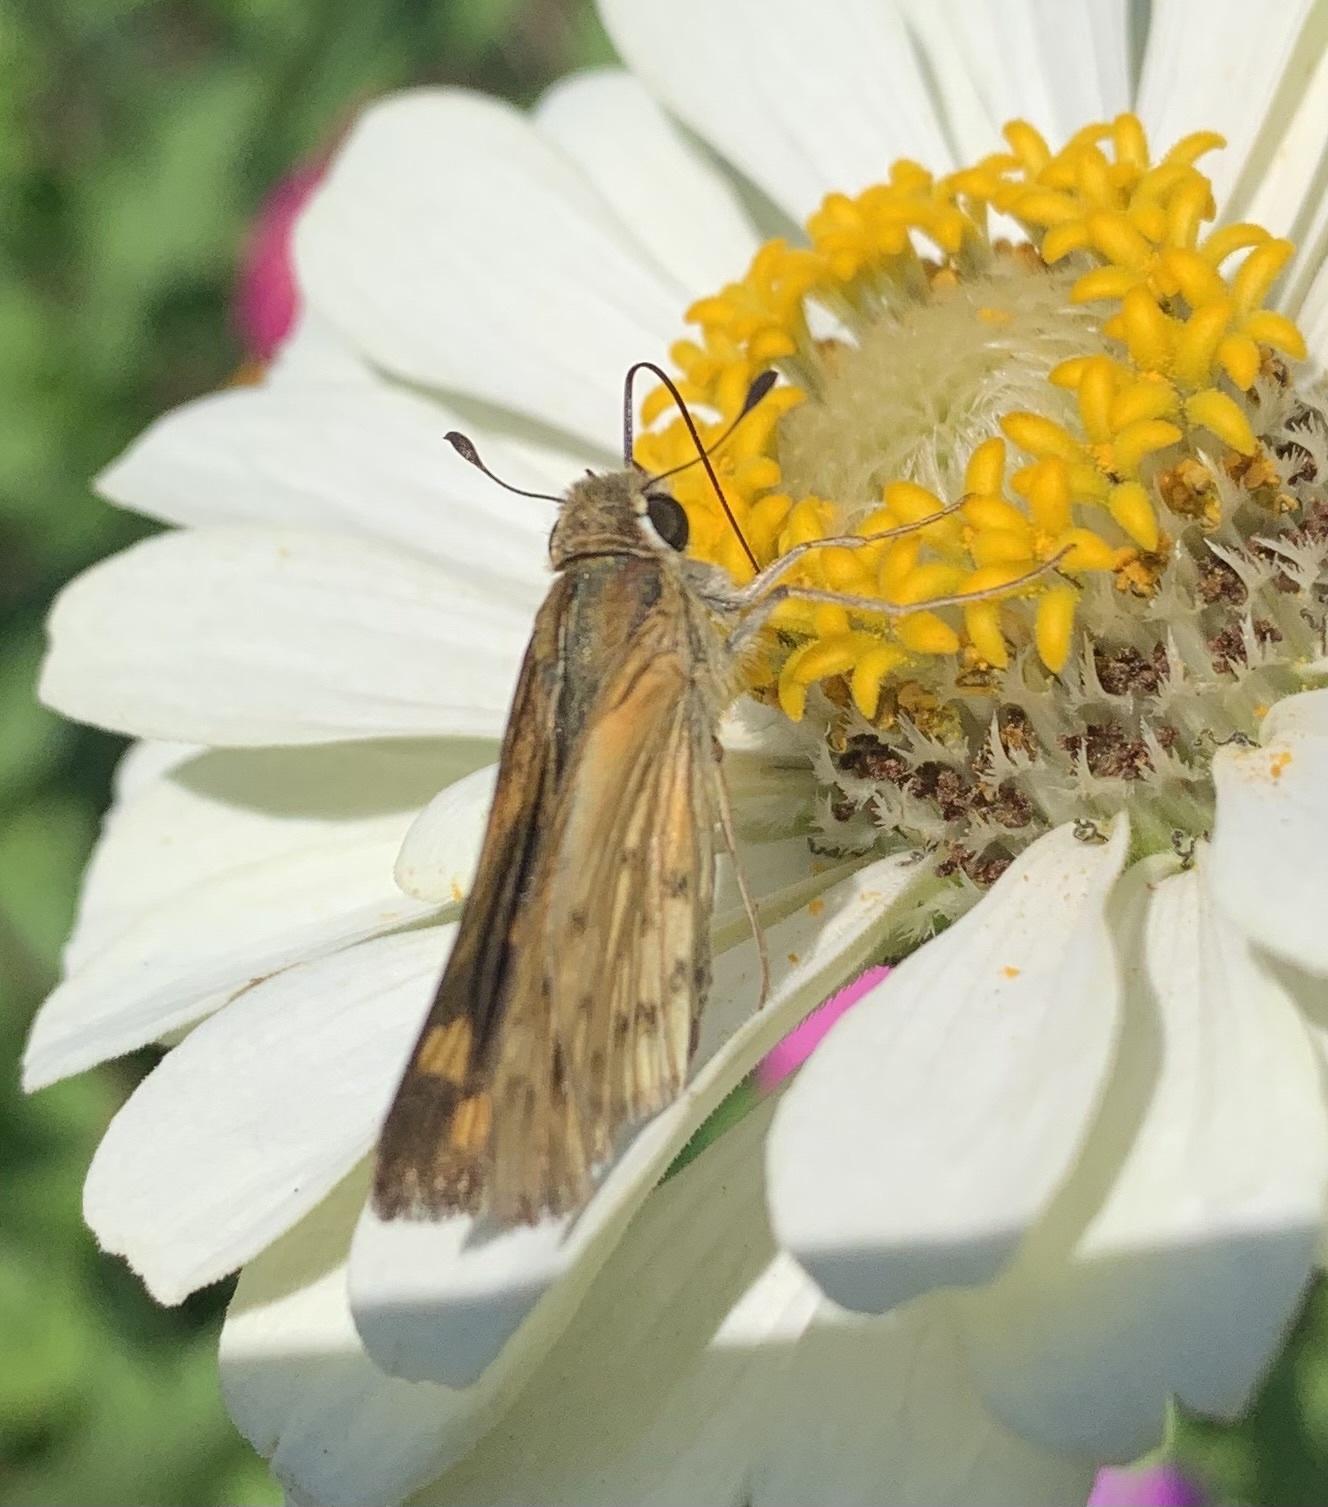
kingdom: Animalia
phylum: Arthropoda
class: Insecta
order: Lepidoptera
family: Hesperiidae
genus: Hylephila
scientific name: Hylephila phyleus
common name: Fiery skipper
